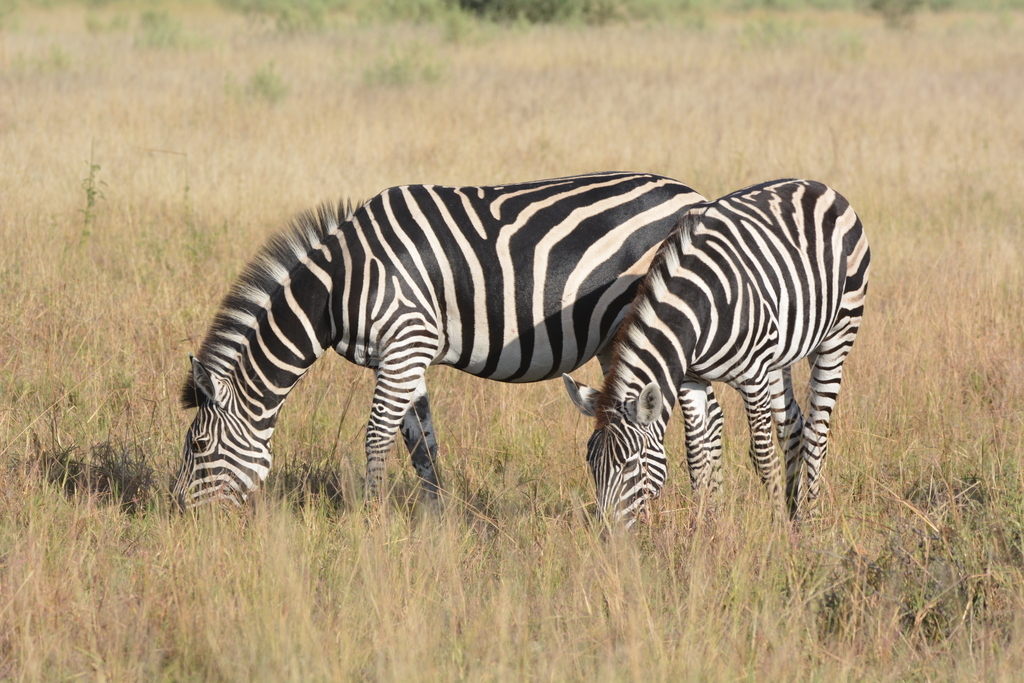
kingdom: Animalia
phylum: Chordata
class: Mammalia
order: Perissodactyla
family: Equidae
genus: Equus
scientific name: Equus quagga
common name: Plains zebra
